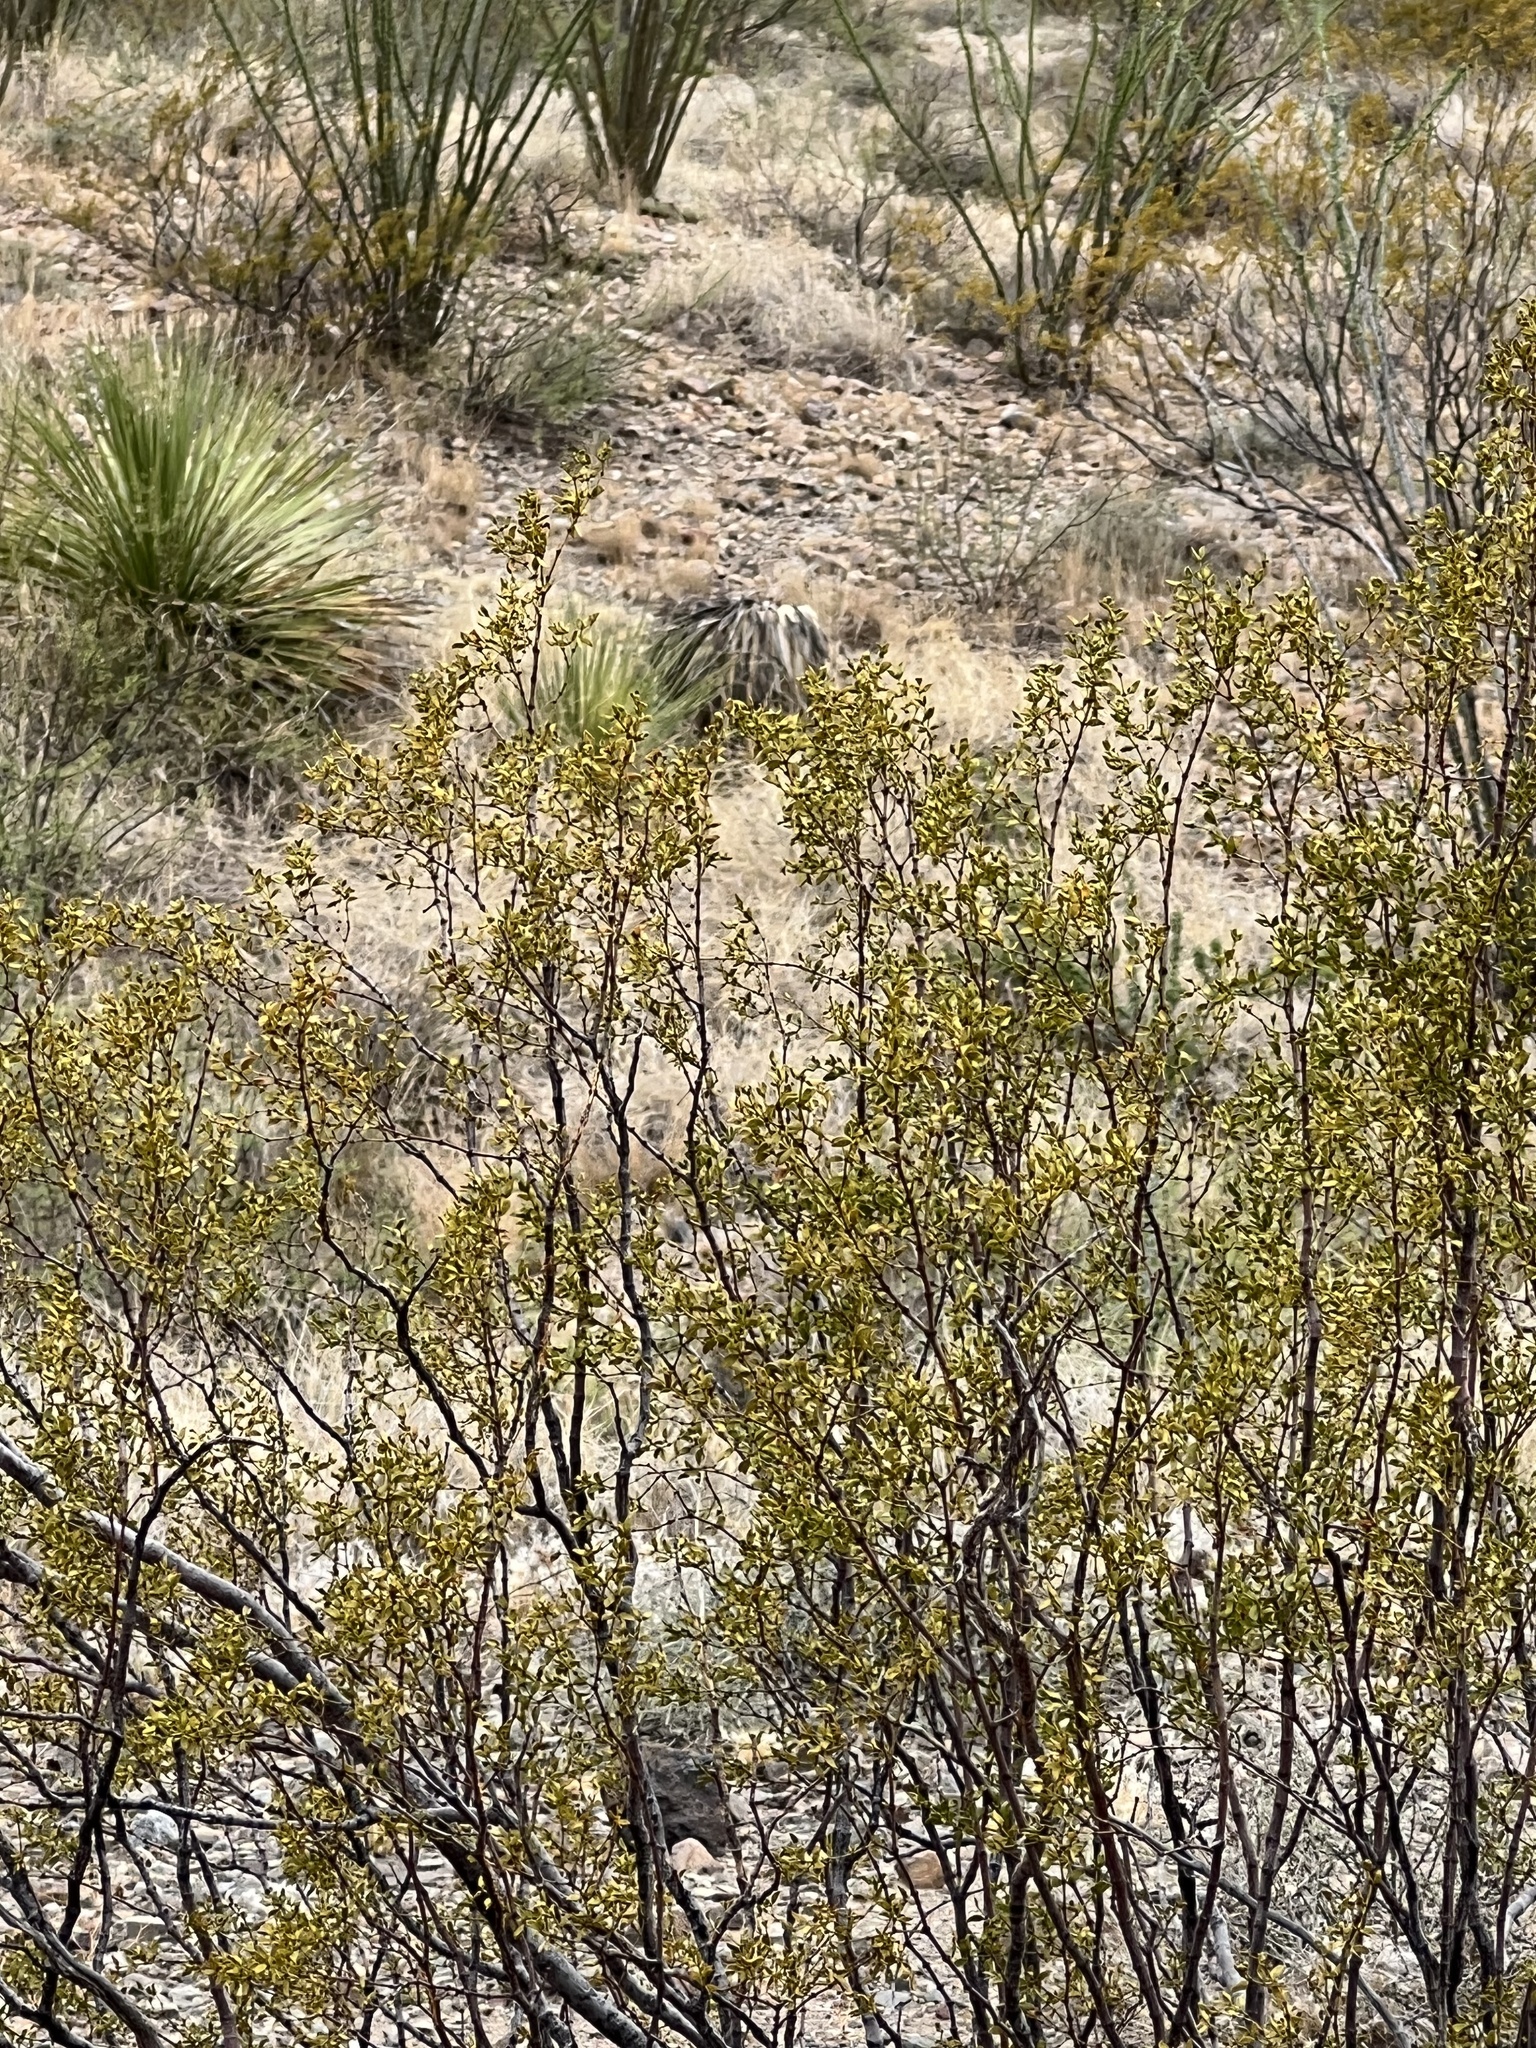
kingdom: Plantae
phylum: Tracheophyta
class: Magnoliopsida
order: Zygophyllales
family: Zygophyllaceae
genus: Larrea
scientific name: Larrea tridentata
